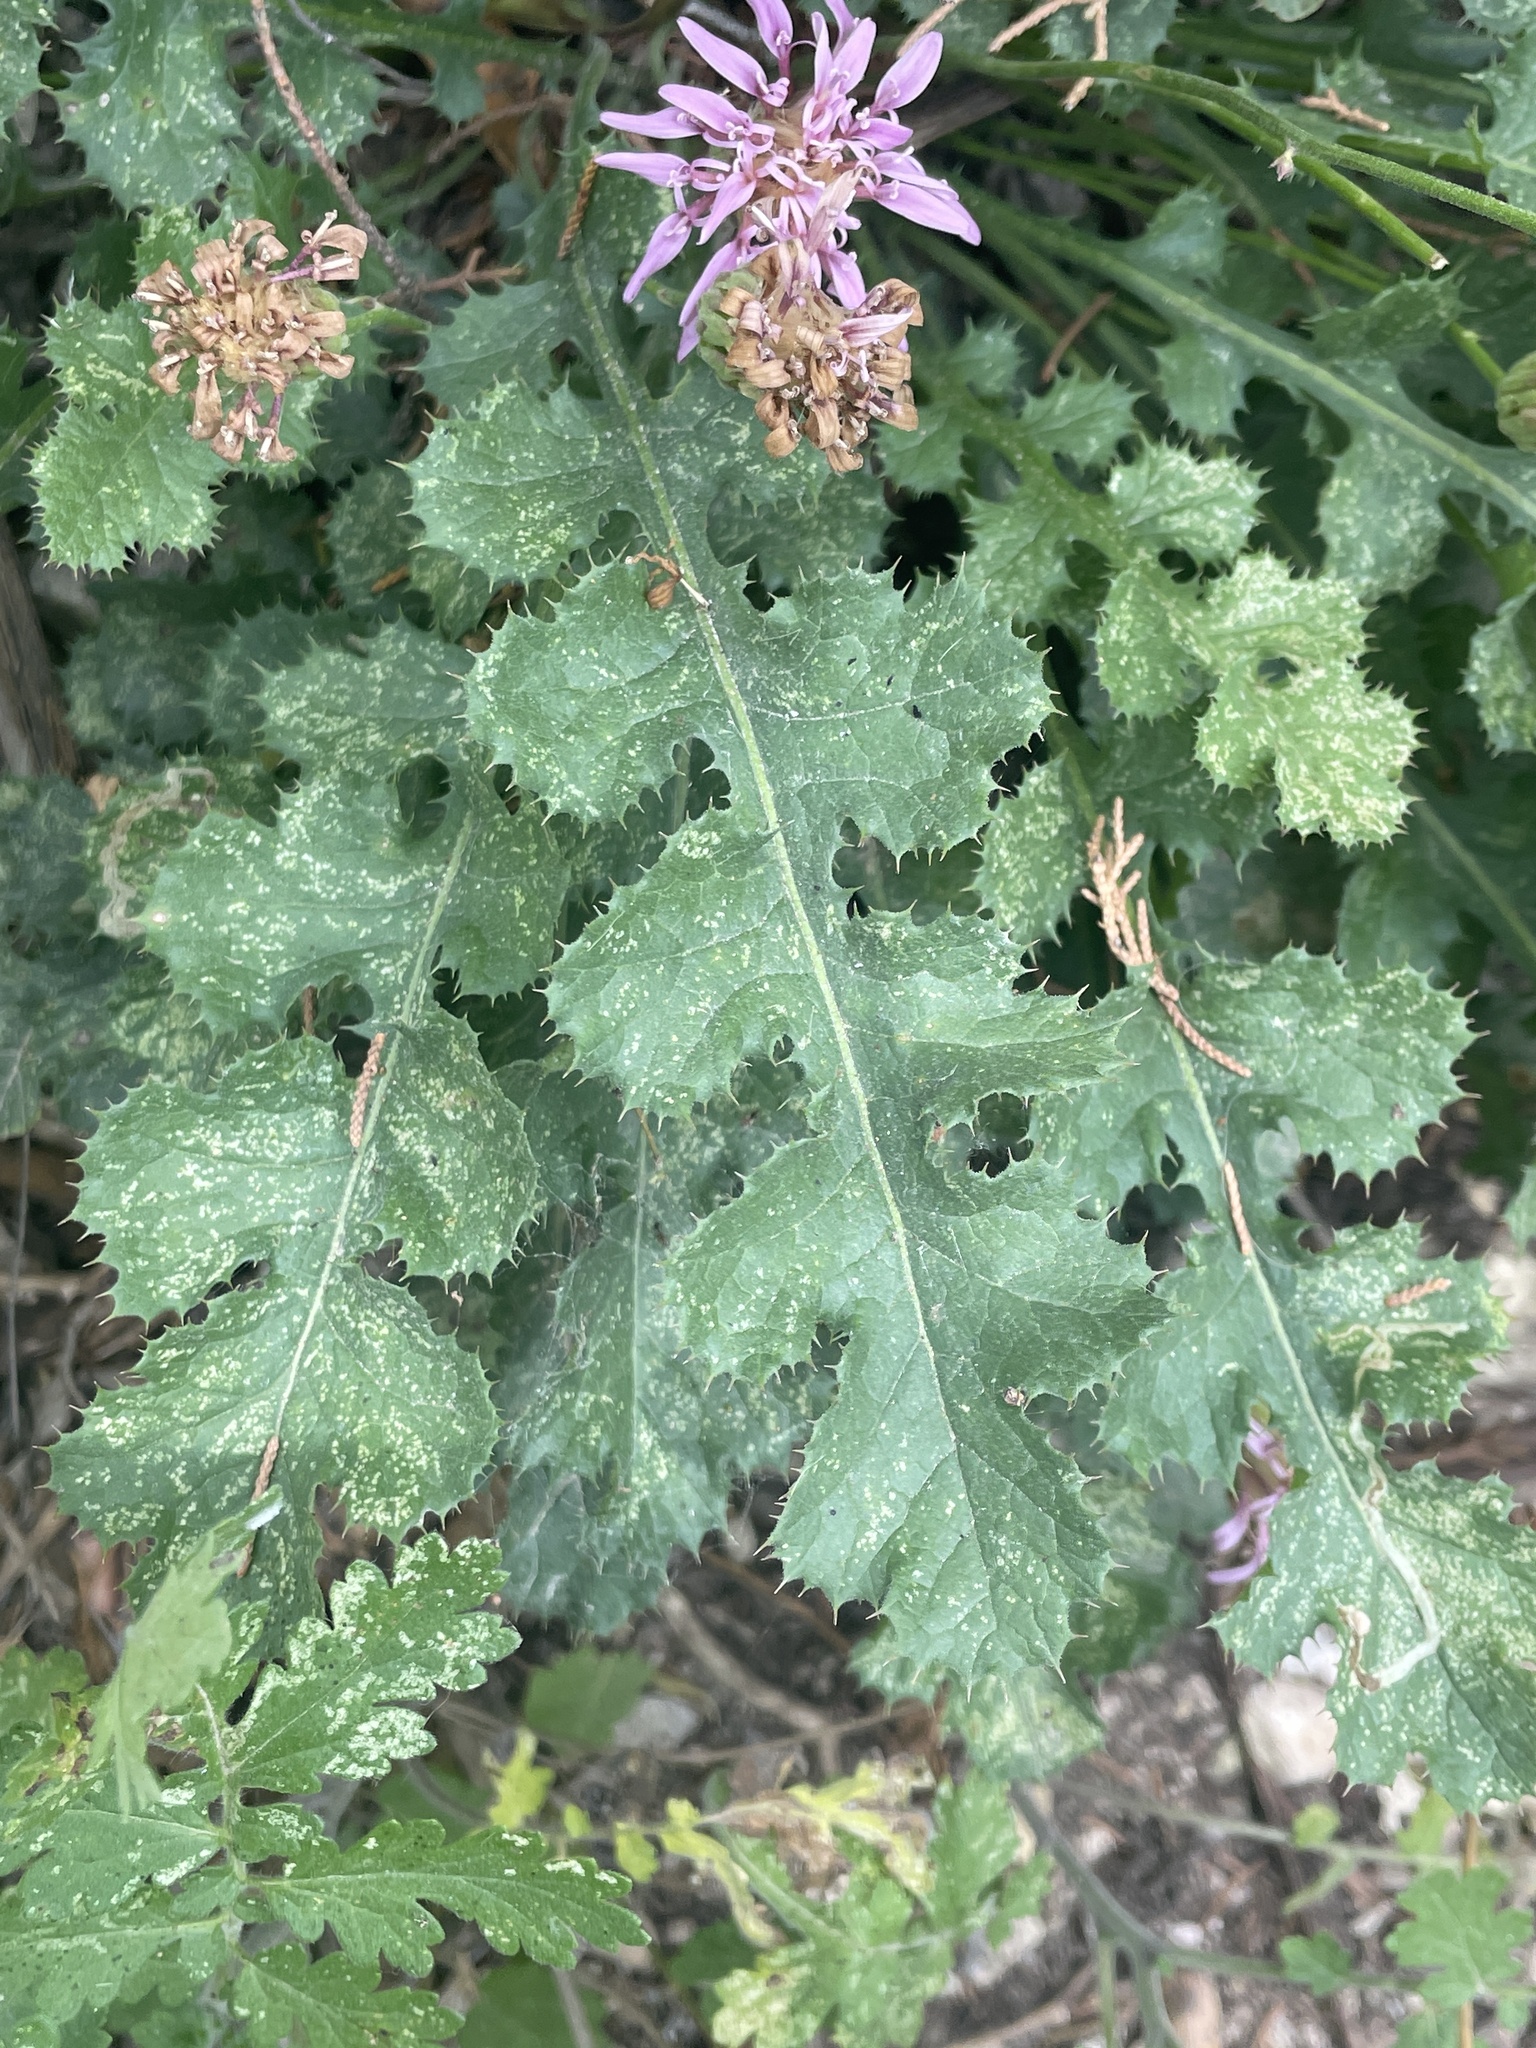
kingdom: Plantae
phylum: Tracheophyta
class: Magnoliopsida
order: Asterales
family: Asteraceae
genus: Acourtia
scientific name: Acourtia runcinata
